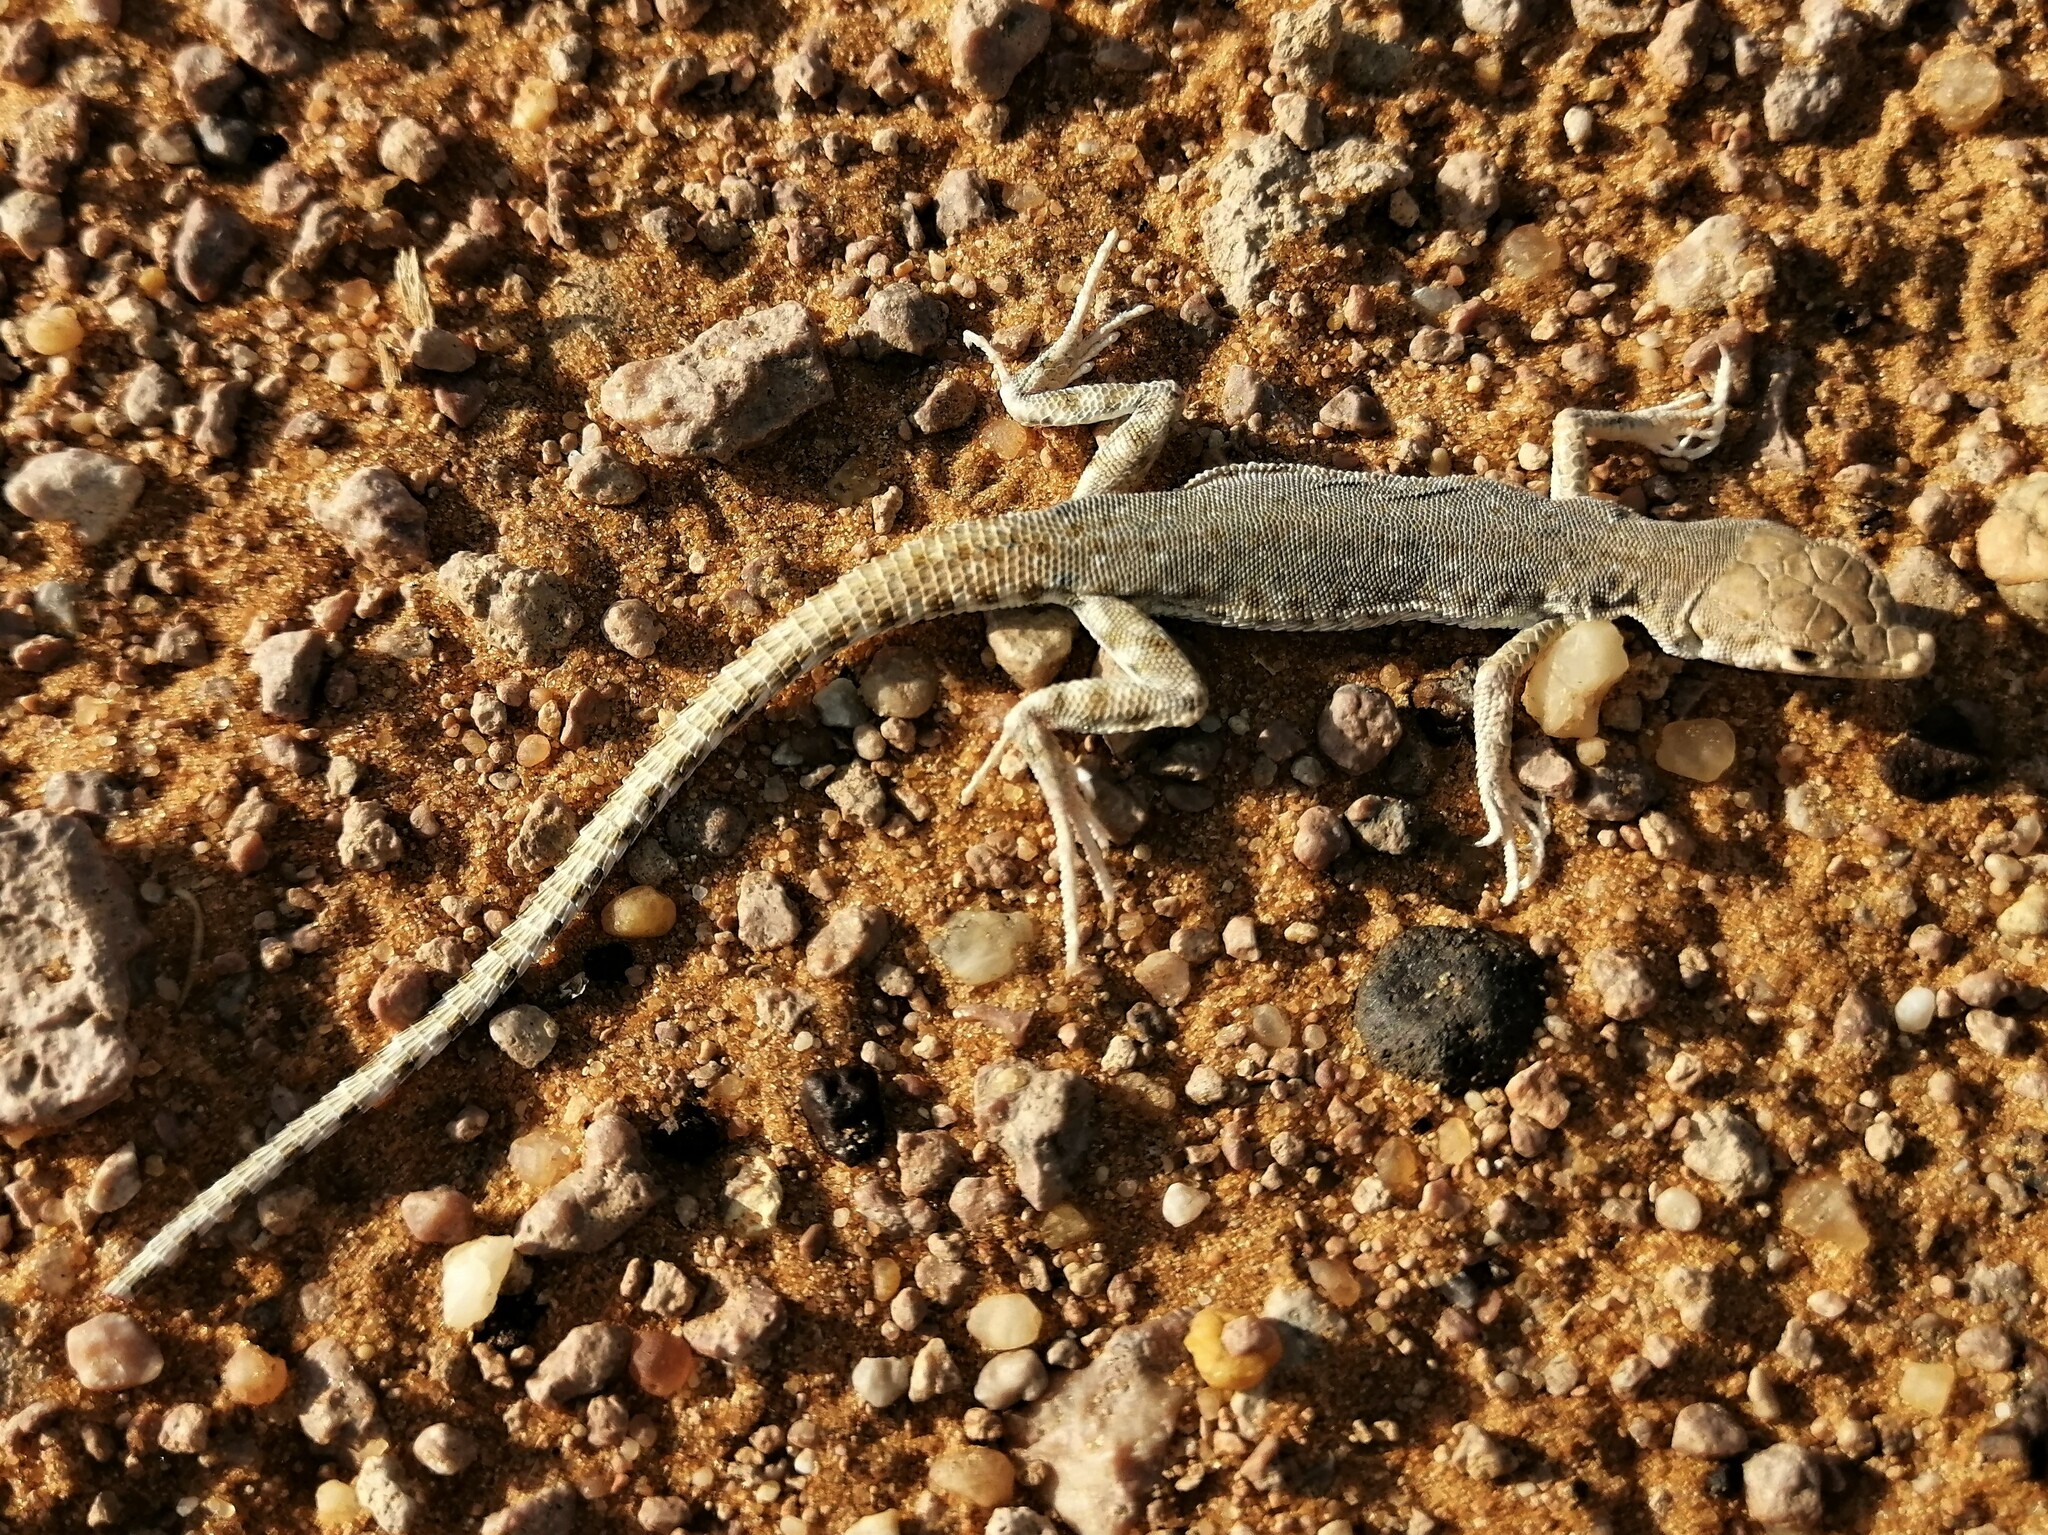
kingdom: Animalia
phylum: Chordata
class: Squamata
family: Lacertidae
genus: Mesalina
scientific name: Mesalina brevirostris
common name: Blanford's short-nosed desert lizard
